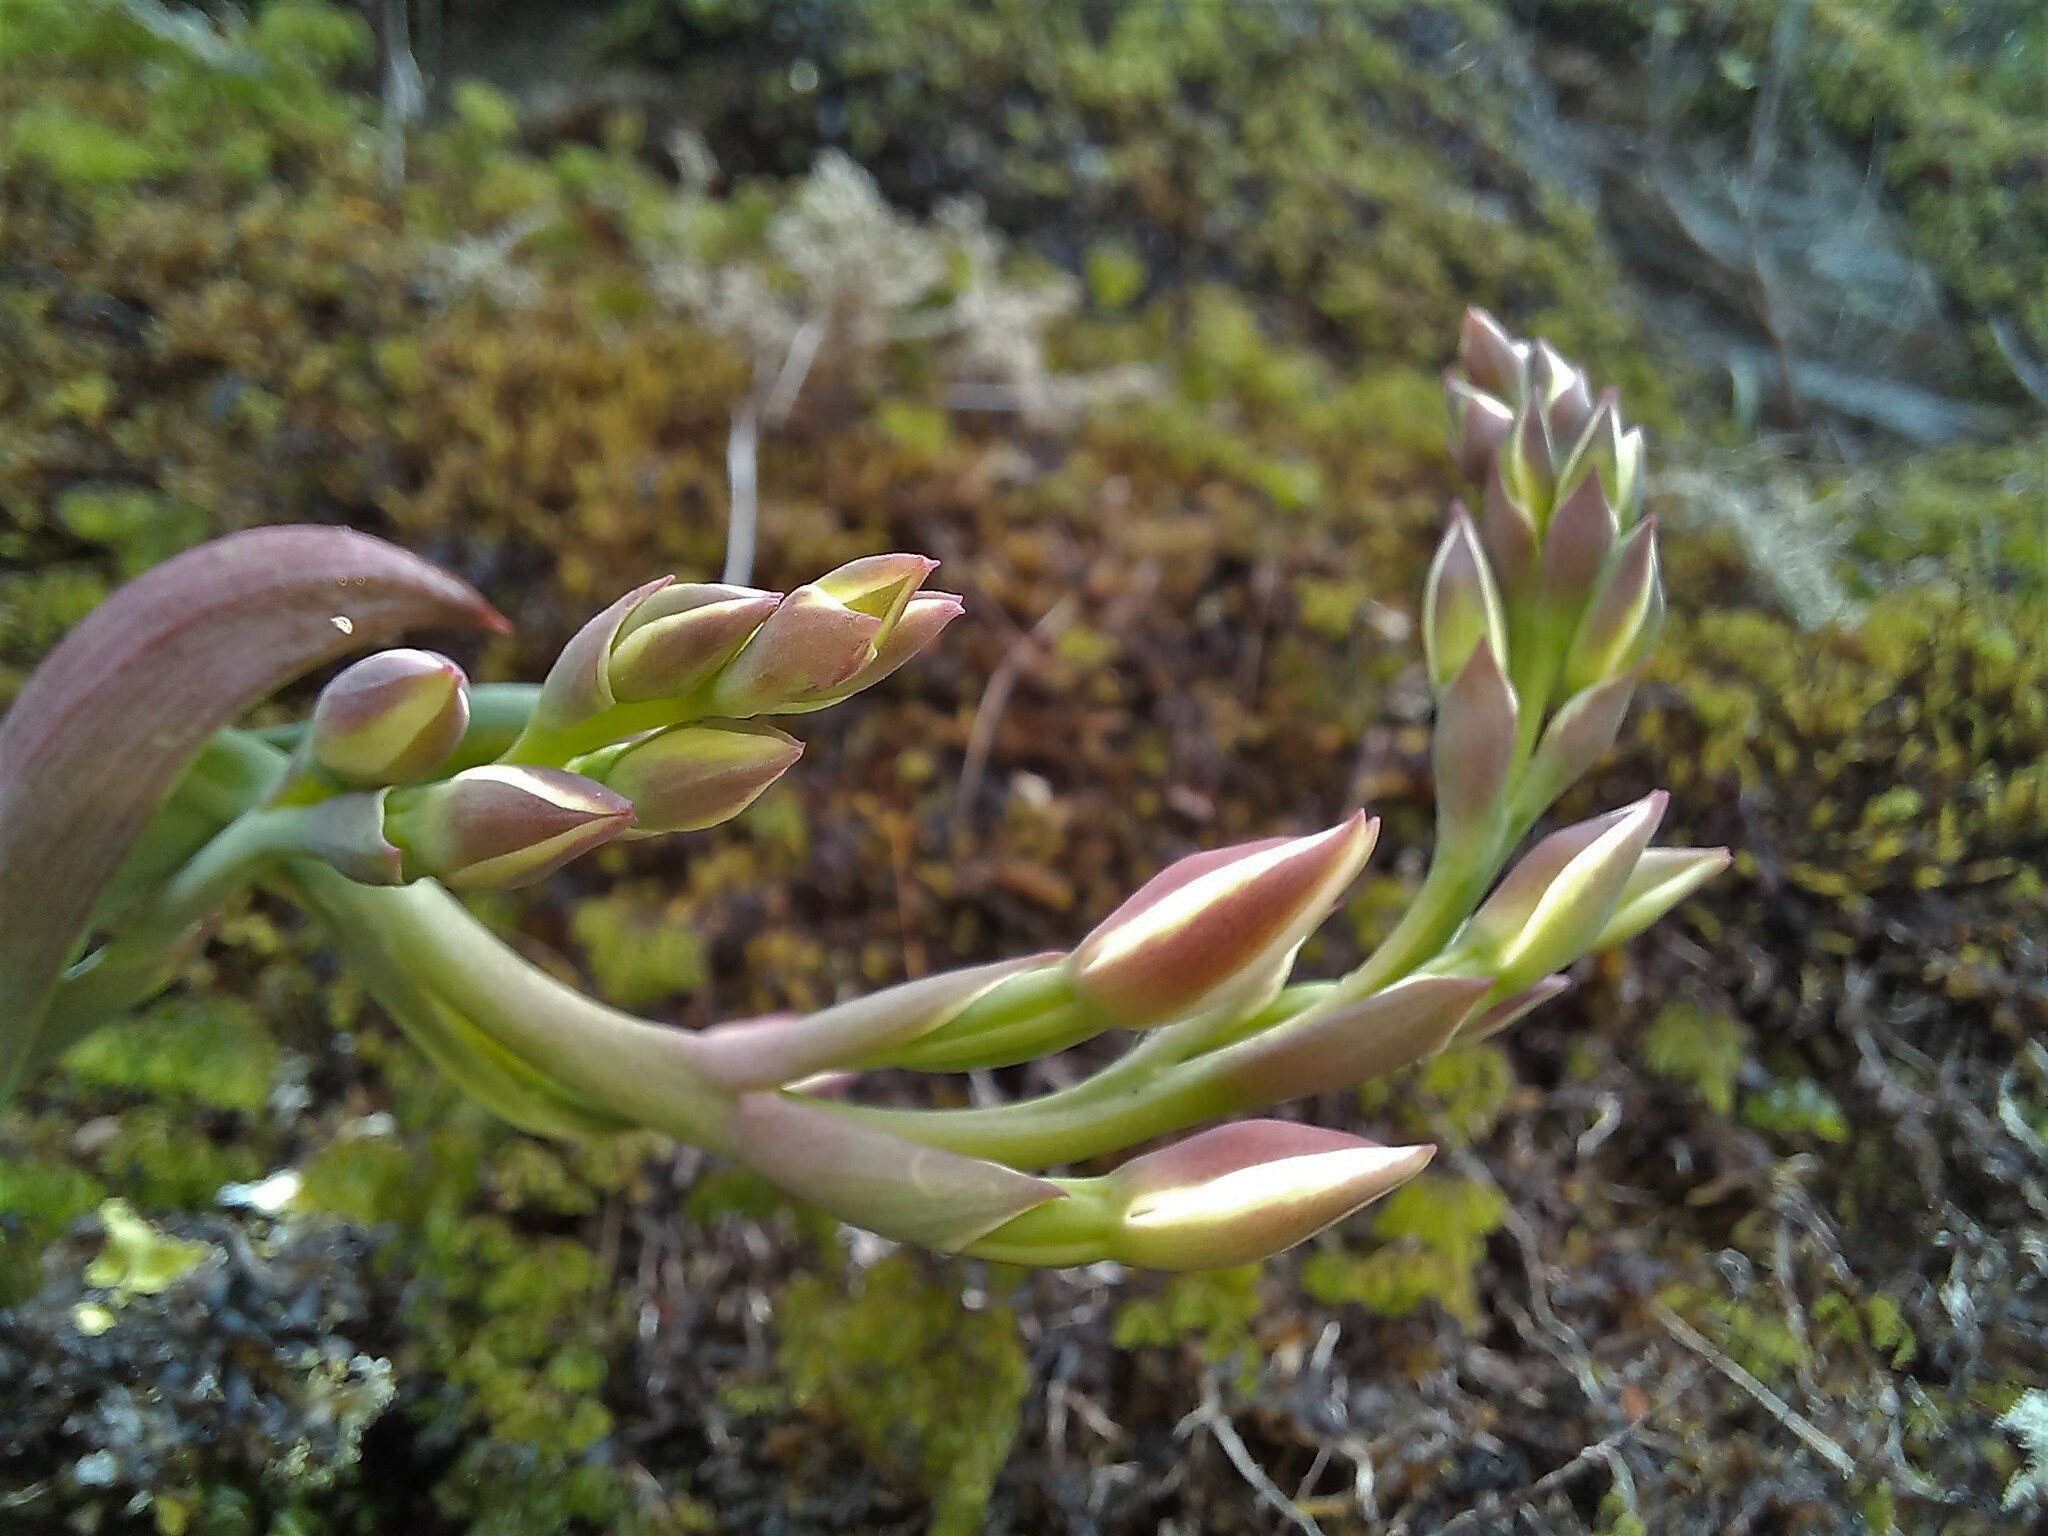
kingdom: Plantae
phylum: Tracheophyta
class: Liliopsida
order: Asparagales
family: Orchidaceae
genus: Thelymitra
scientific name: Thelymitra longifolia
